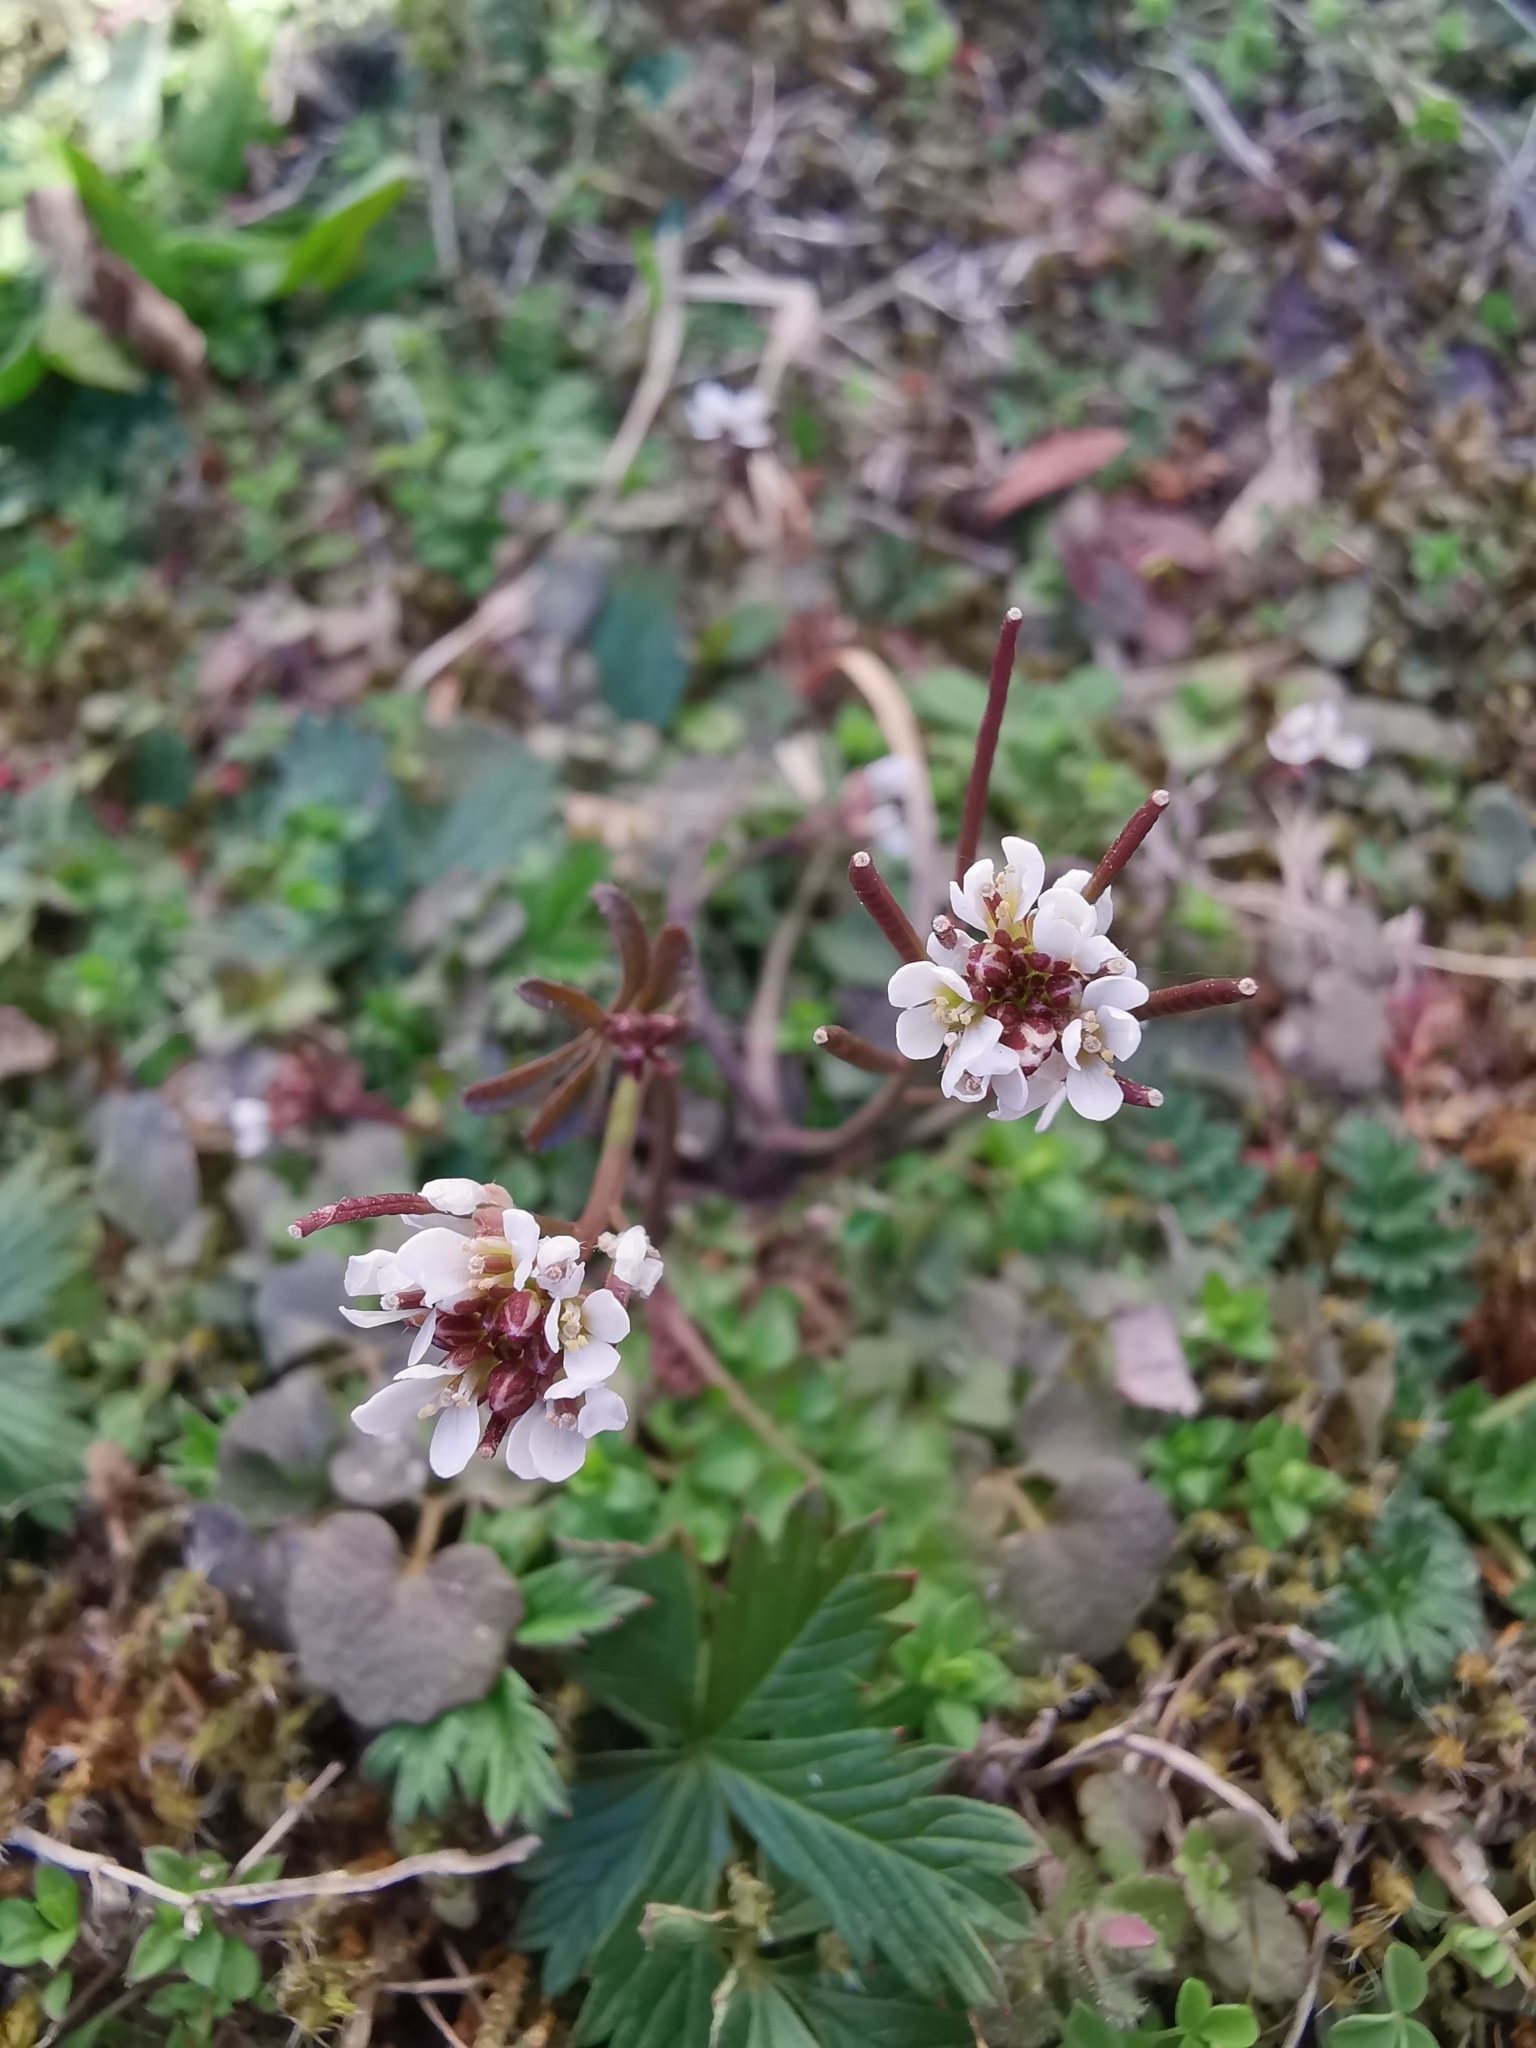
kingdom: Plantae
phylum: Tracheophyta
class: Magnoliopsida
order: Brassicales
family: Brassicaceae
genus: Cardamine
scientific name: Cardamine hirsuta
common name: Hairy bittercress
